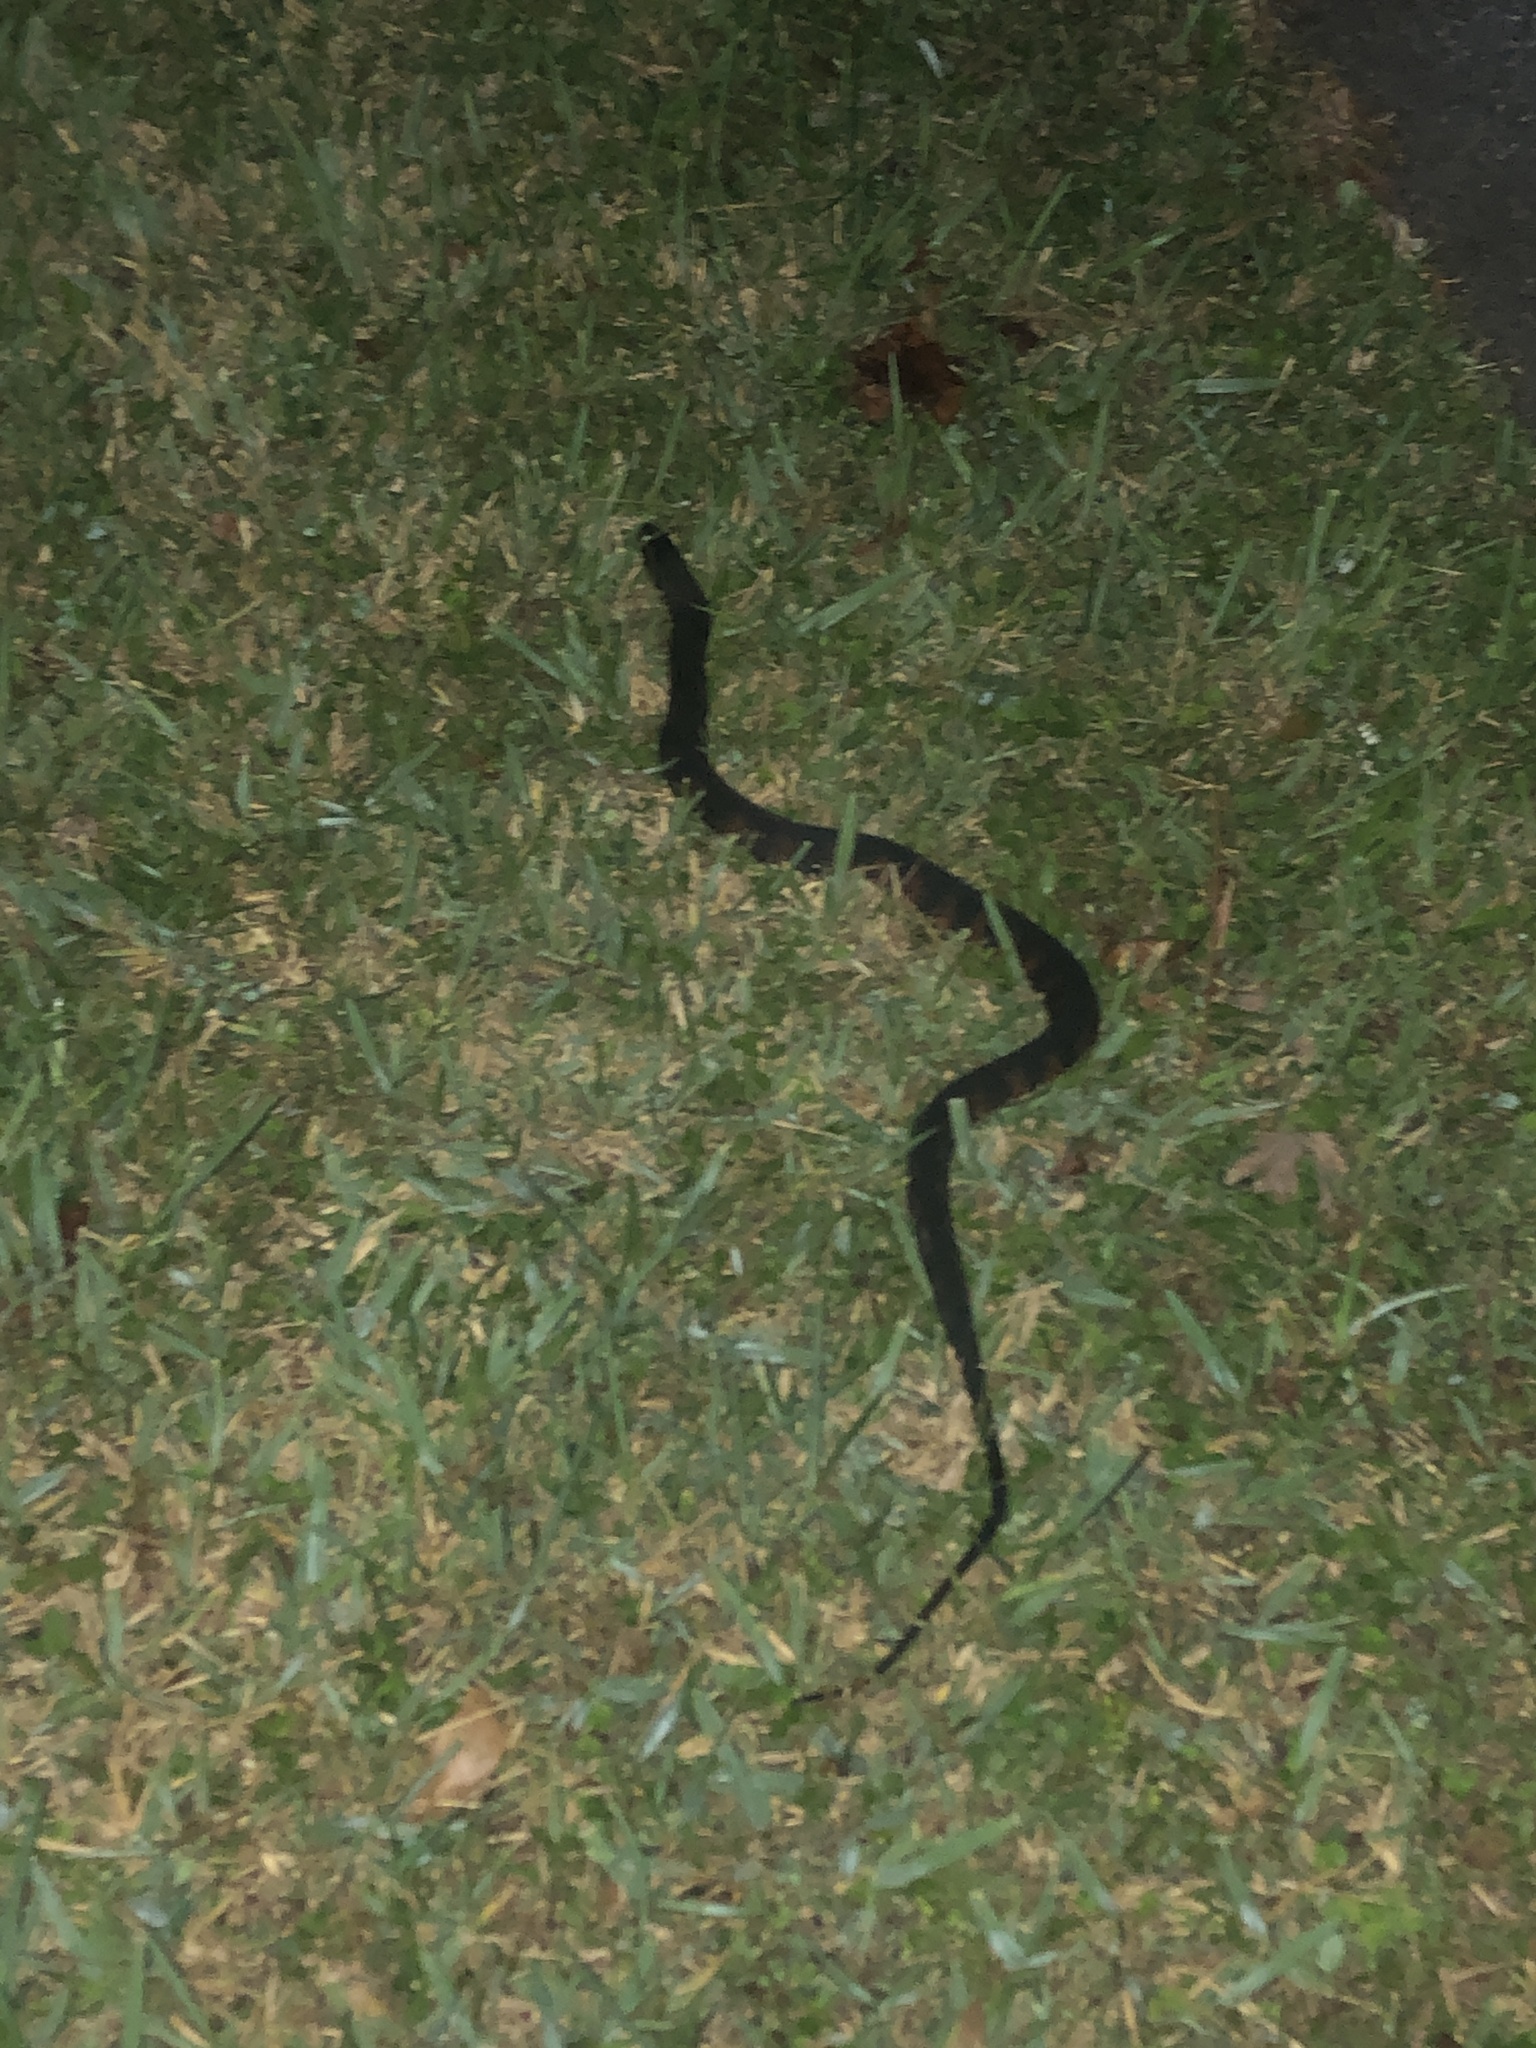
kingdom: Animalia
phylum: Chordata
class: Squamata
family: Colubridae
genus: Nerodia
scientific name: Nerodia fasciata
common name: Southern water snake
